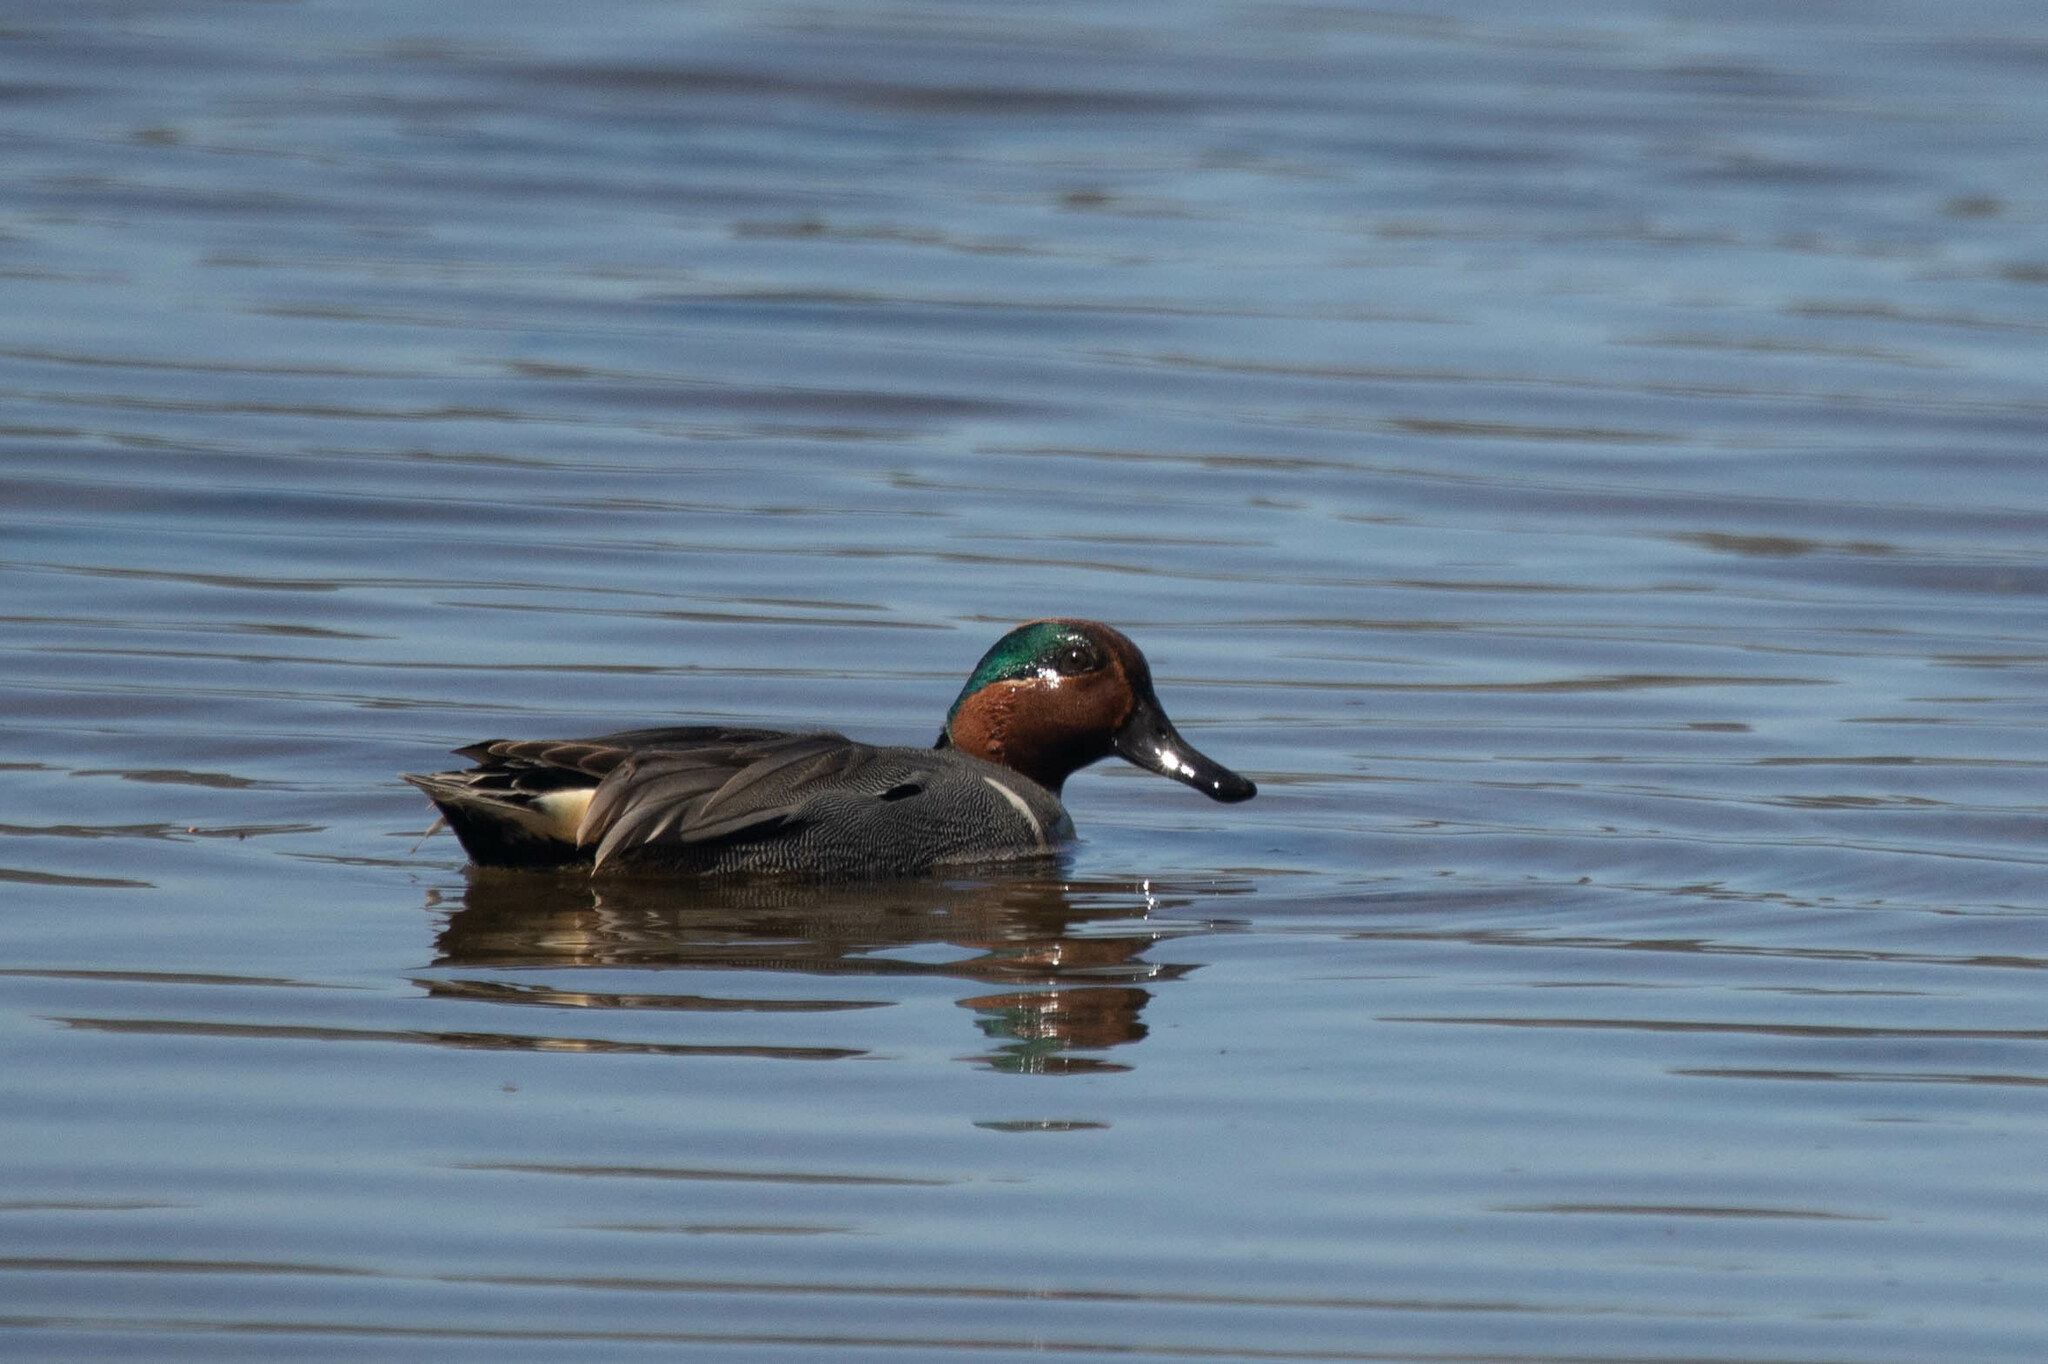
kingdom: Animalia
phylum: Chordata
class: Aves
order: Anseriformes
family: Anatidae
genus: Anas
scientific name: Anas carolinensis
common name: Green-winged teal
